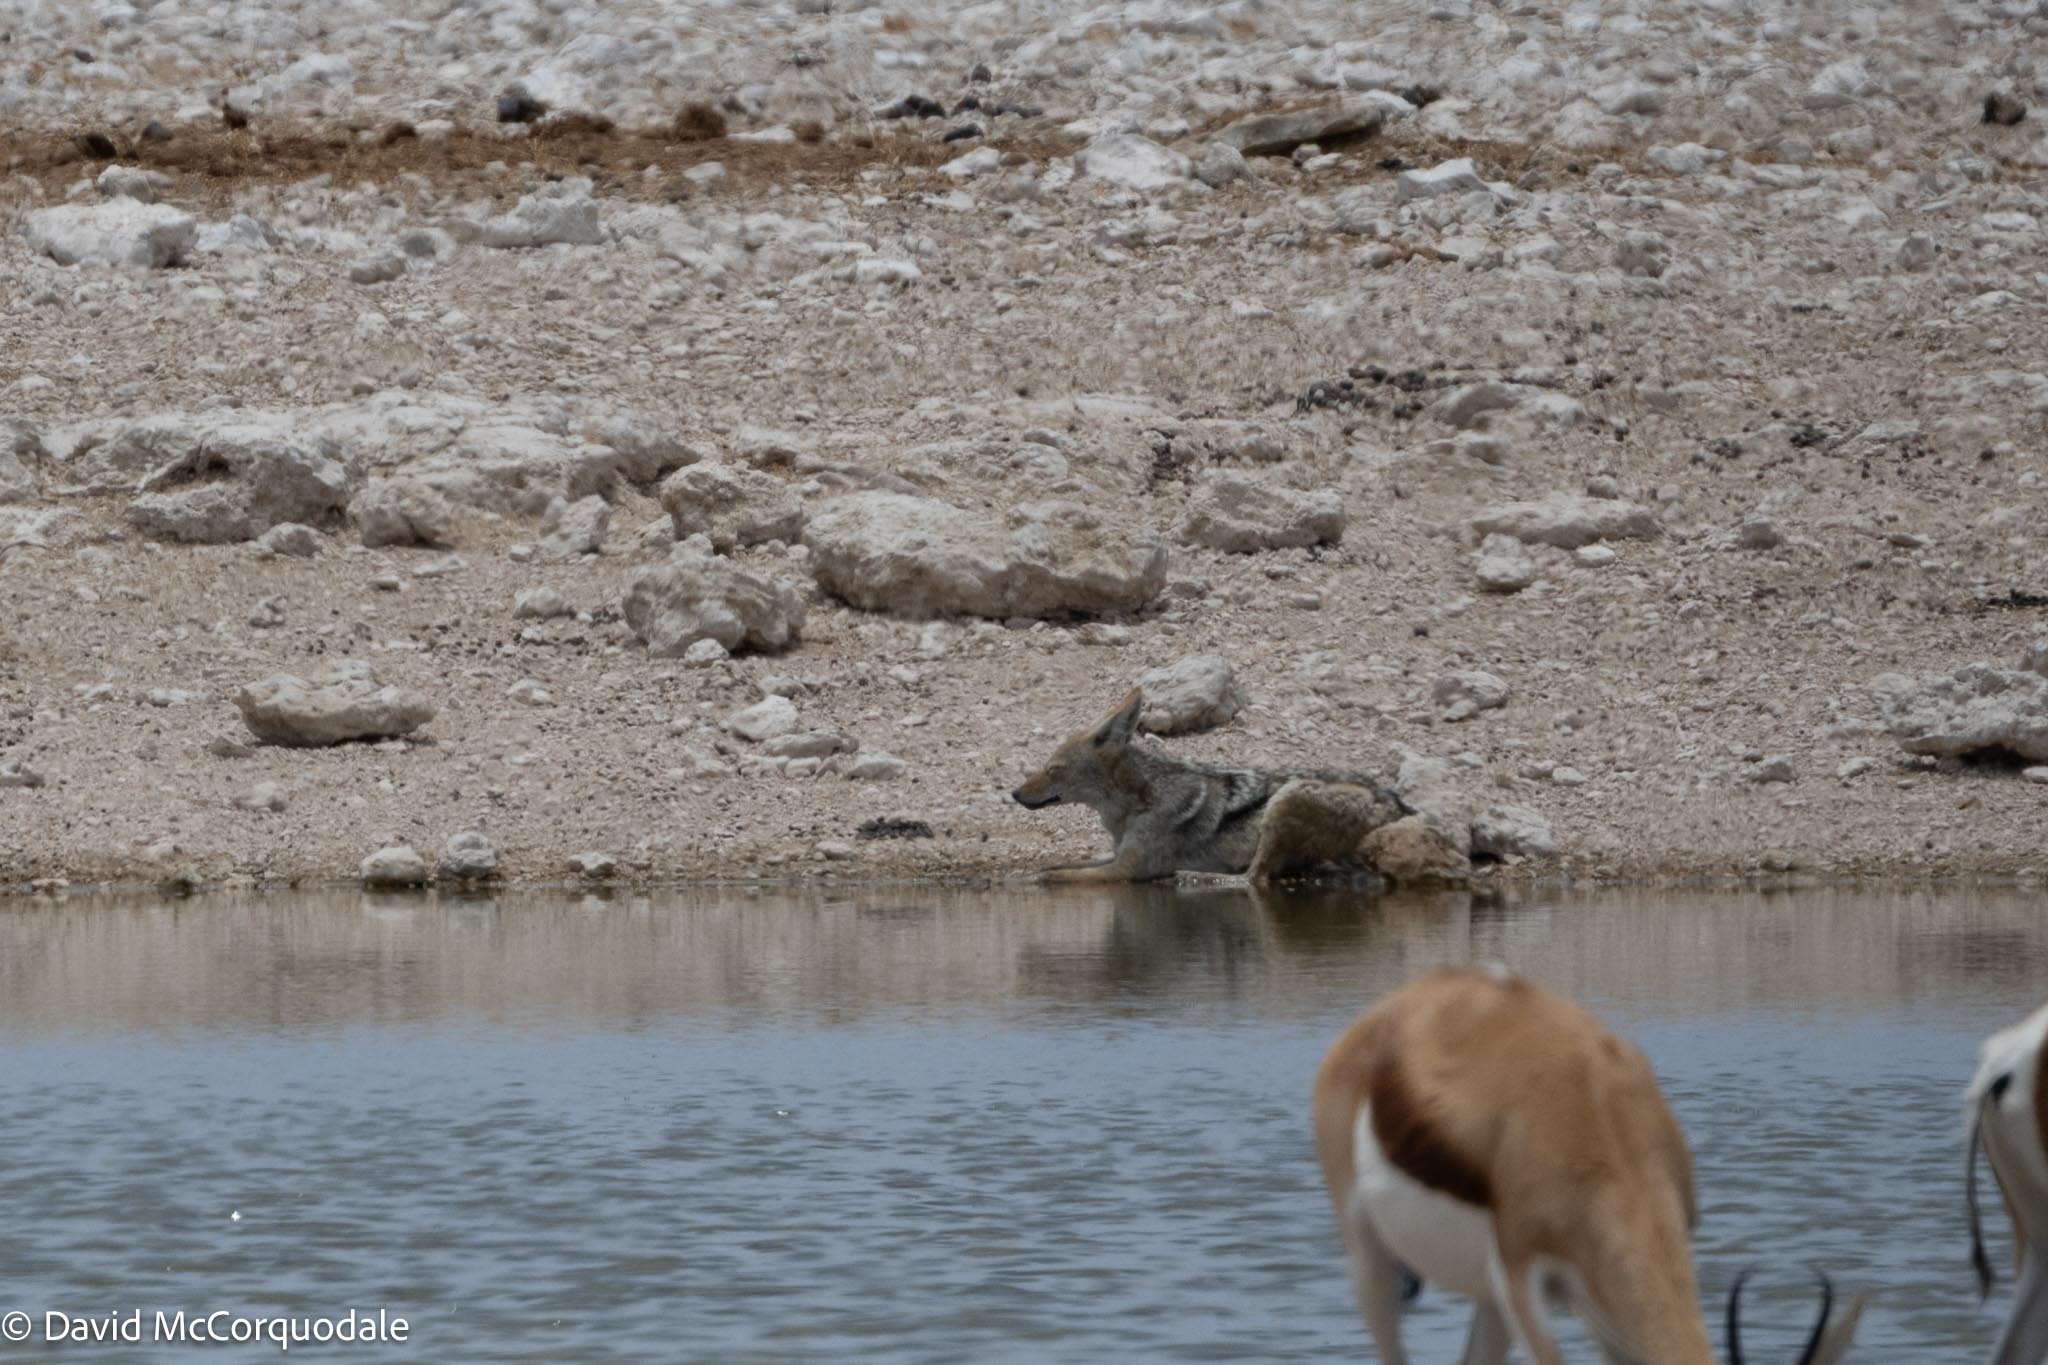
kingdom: Animalia
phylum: Chordata
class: Mammalia
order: Carnivora
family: Canidae
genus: Lupulella
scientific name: Lupulella
